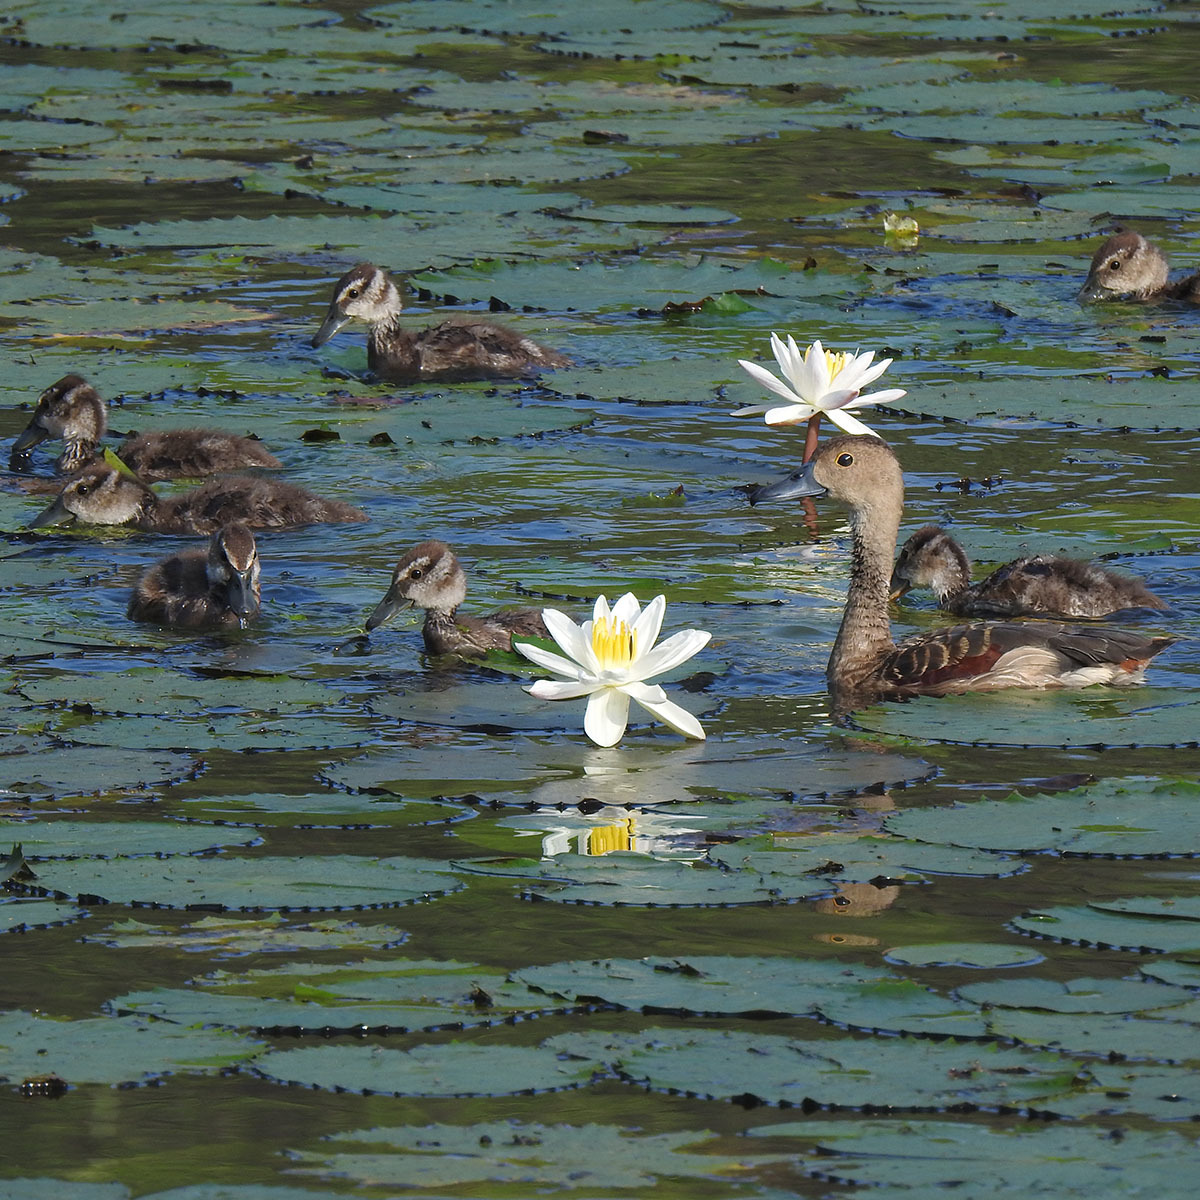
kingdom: Animalia
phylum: Chordata
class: Aves
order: Anseriformes
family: Anatidae
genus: Dendrocygna
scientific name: Dendrocygna javanica
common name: Lesser whistling-duck
